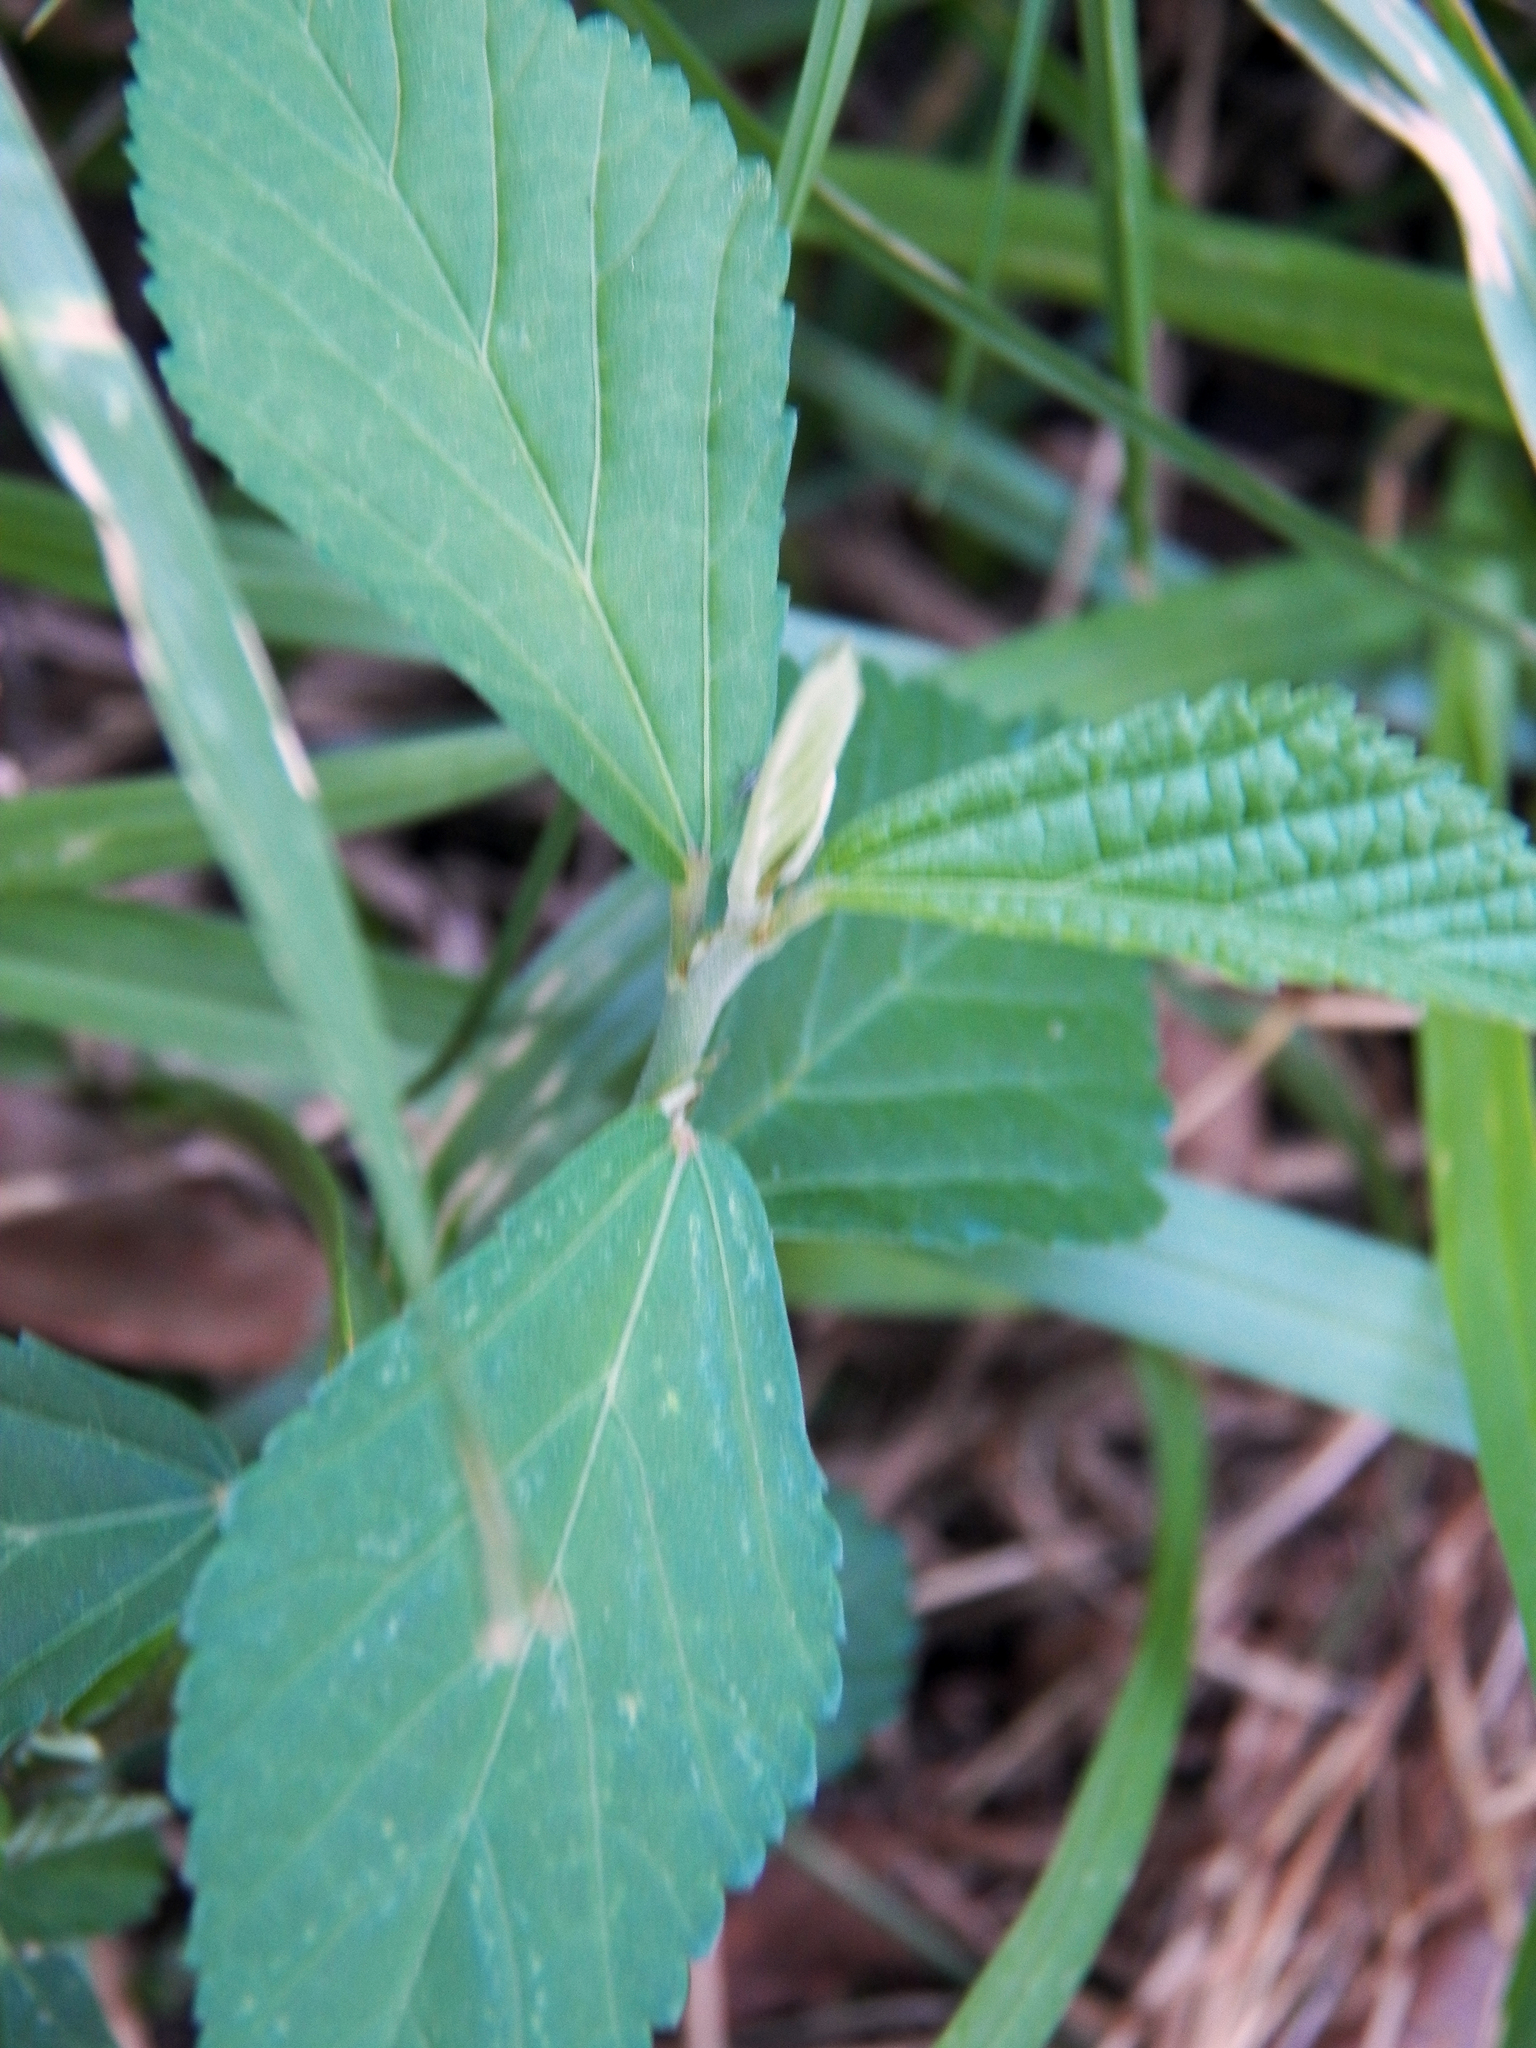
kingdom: Plantae
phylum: Tracheophyta
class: Magnoliopsida
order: Malvales
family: Malvaceae
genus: Sida
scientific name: Sida rhombifolia
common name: Queensland-hemp
